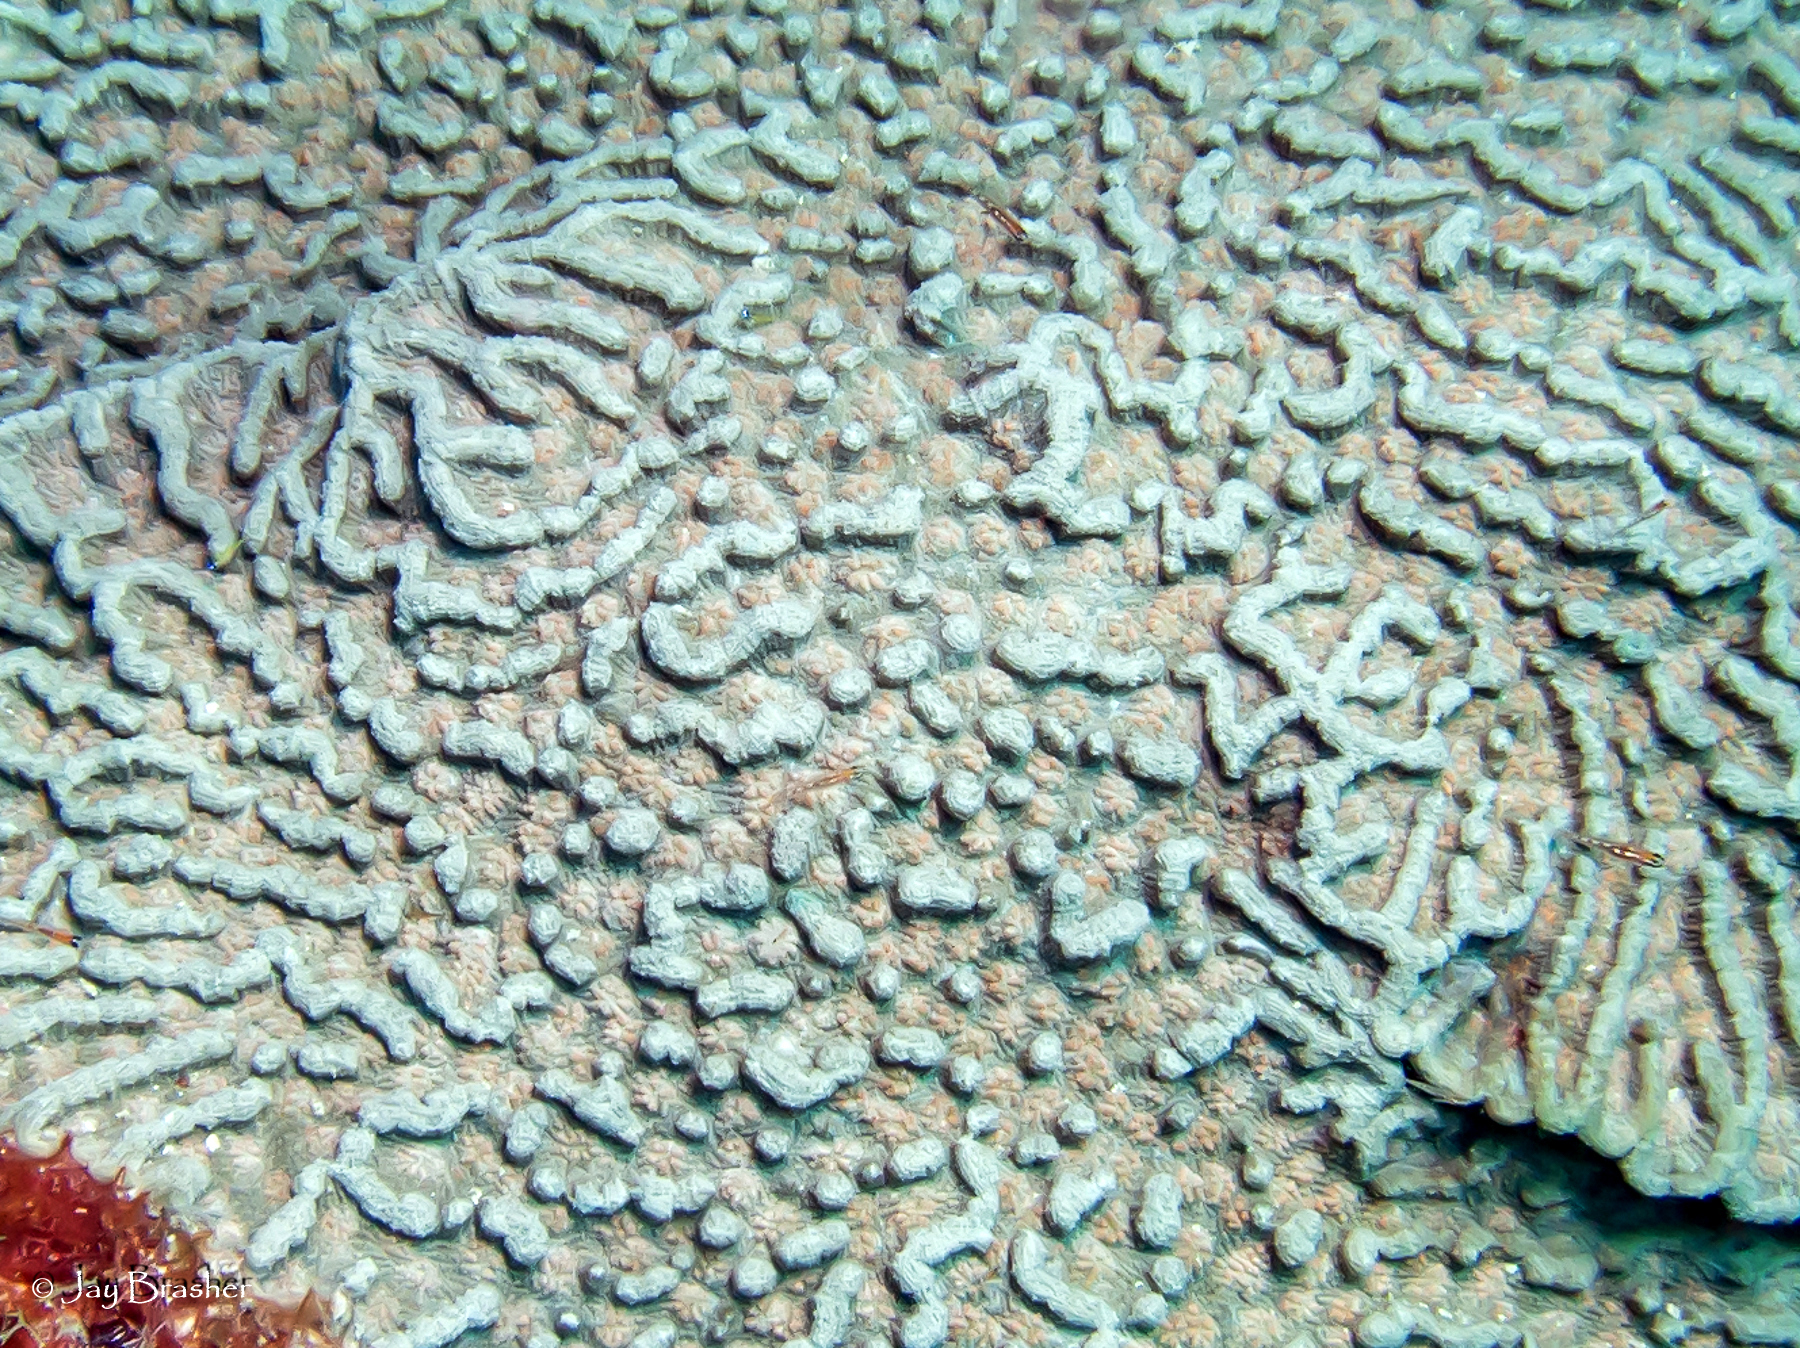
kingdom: Animalia
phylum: Cnidaria
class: Anthozoa
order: Scleractinia
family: Faviidae
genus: Mycetophyllia
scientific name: Mycetophyllia ferox
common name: Rough cactus coral
